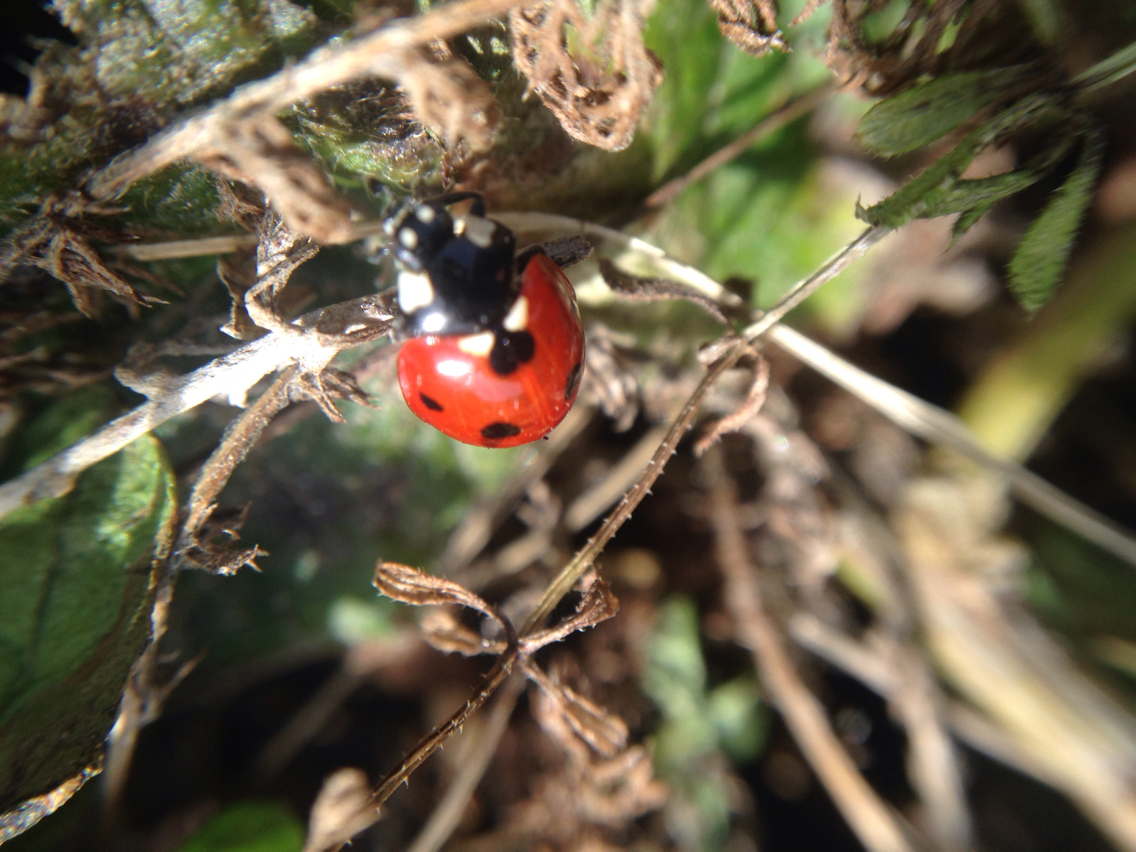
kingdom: Animalia
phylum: Arthropoda
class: Insecta
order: Coleoptera
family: Coccinellidae
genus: Coccinella
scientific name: Coccinella septempunctata
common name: Sevenspotted lady beetle
